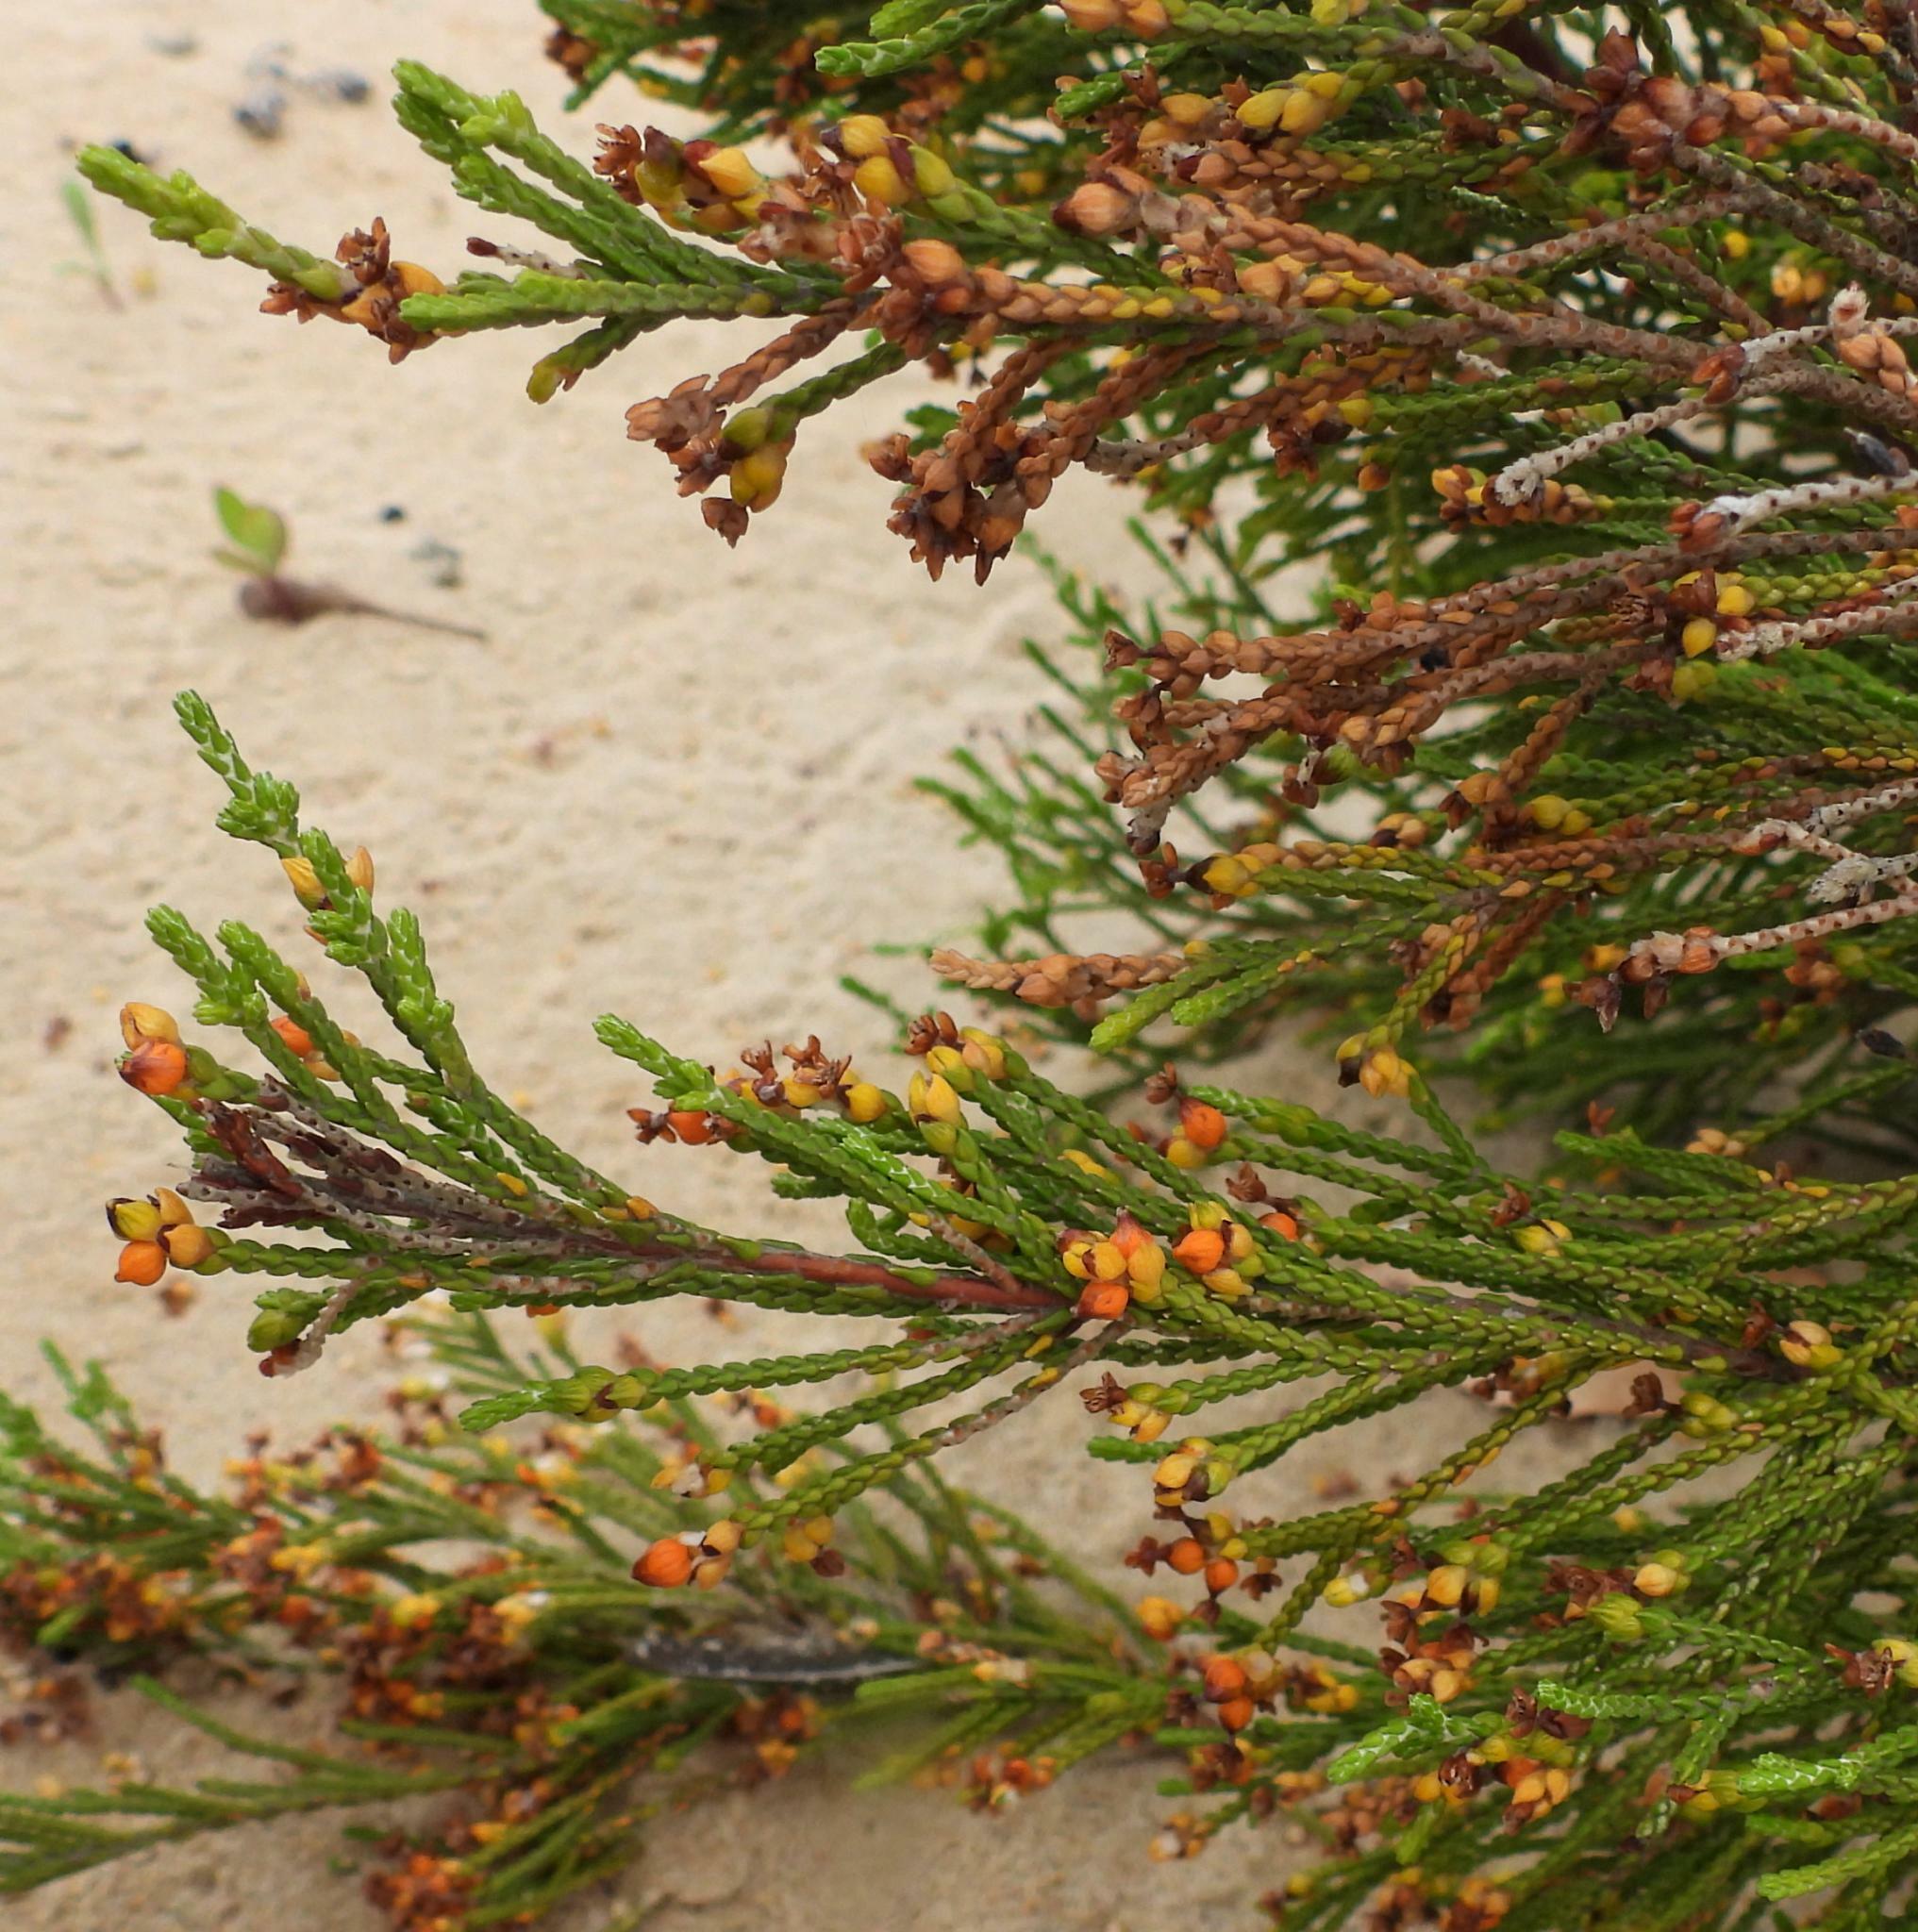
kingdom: Plantae
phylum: Tracheophyta
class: Magnoliopsida
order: Malvales
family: Thymelaeaceae
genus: Passerina
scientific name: Passerina rigida
